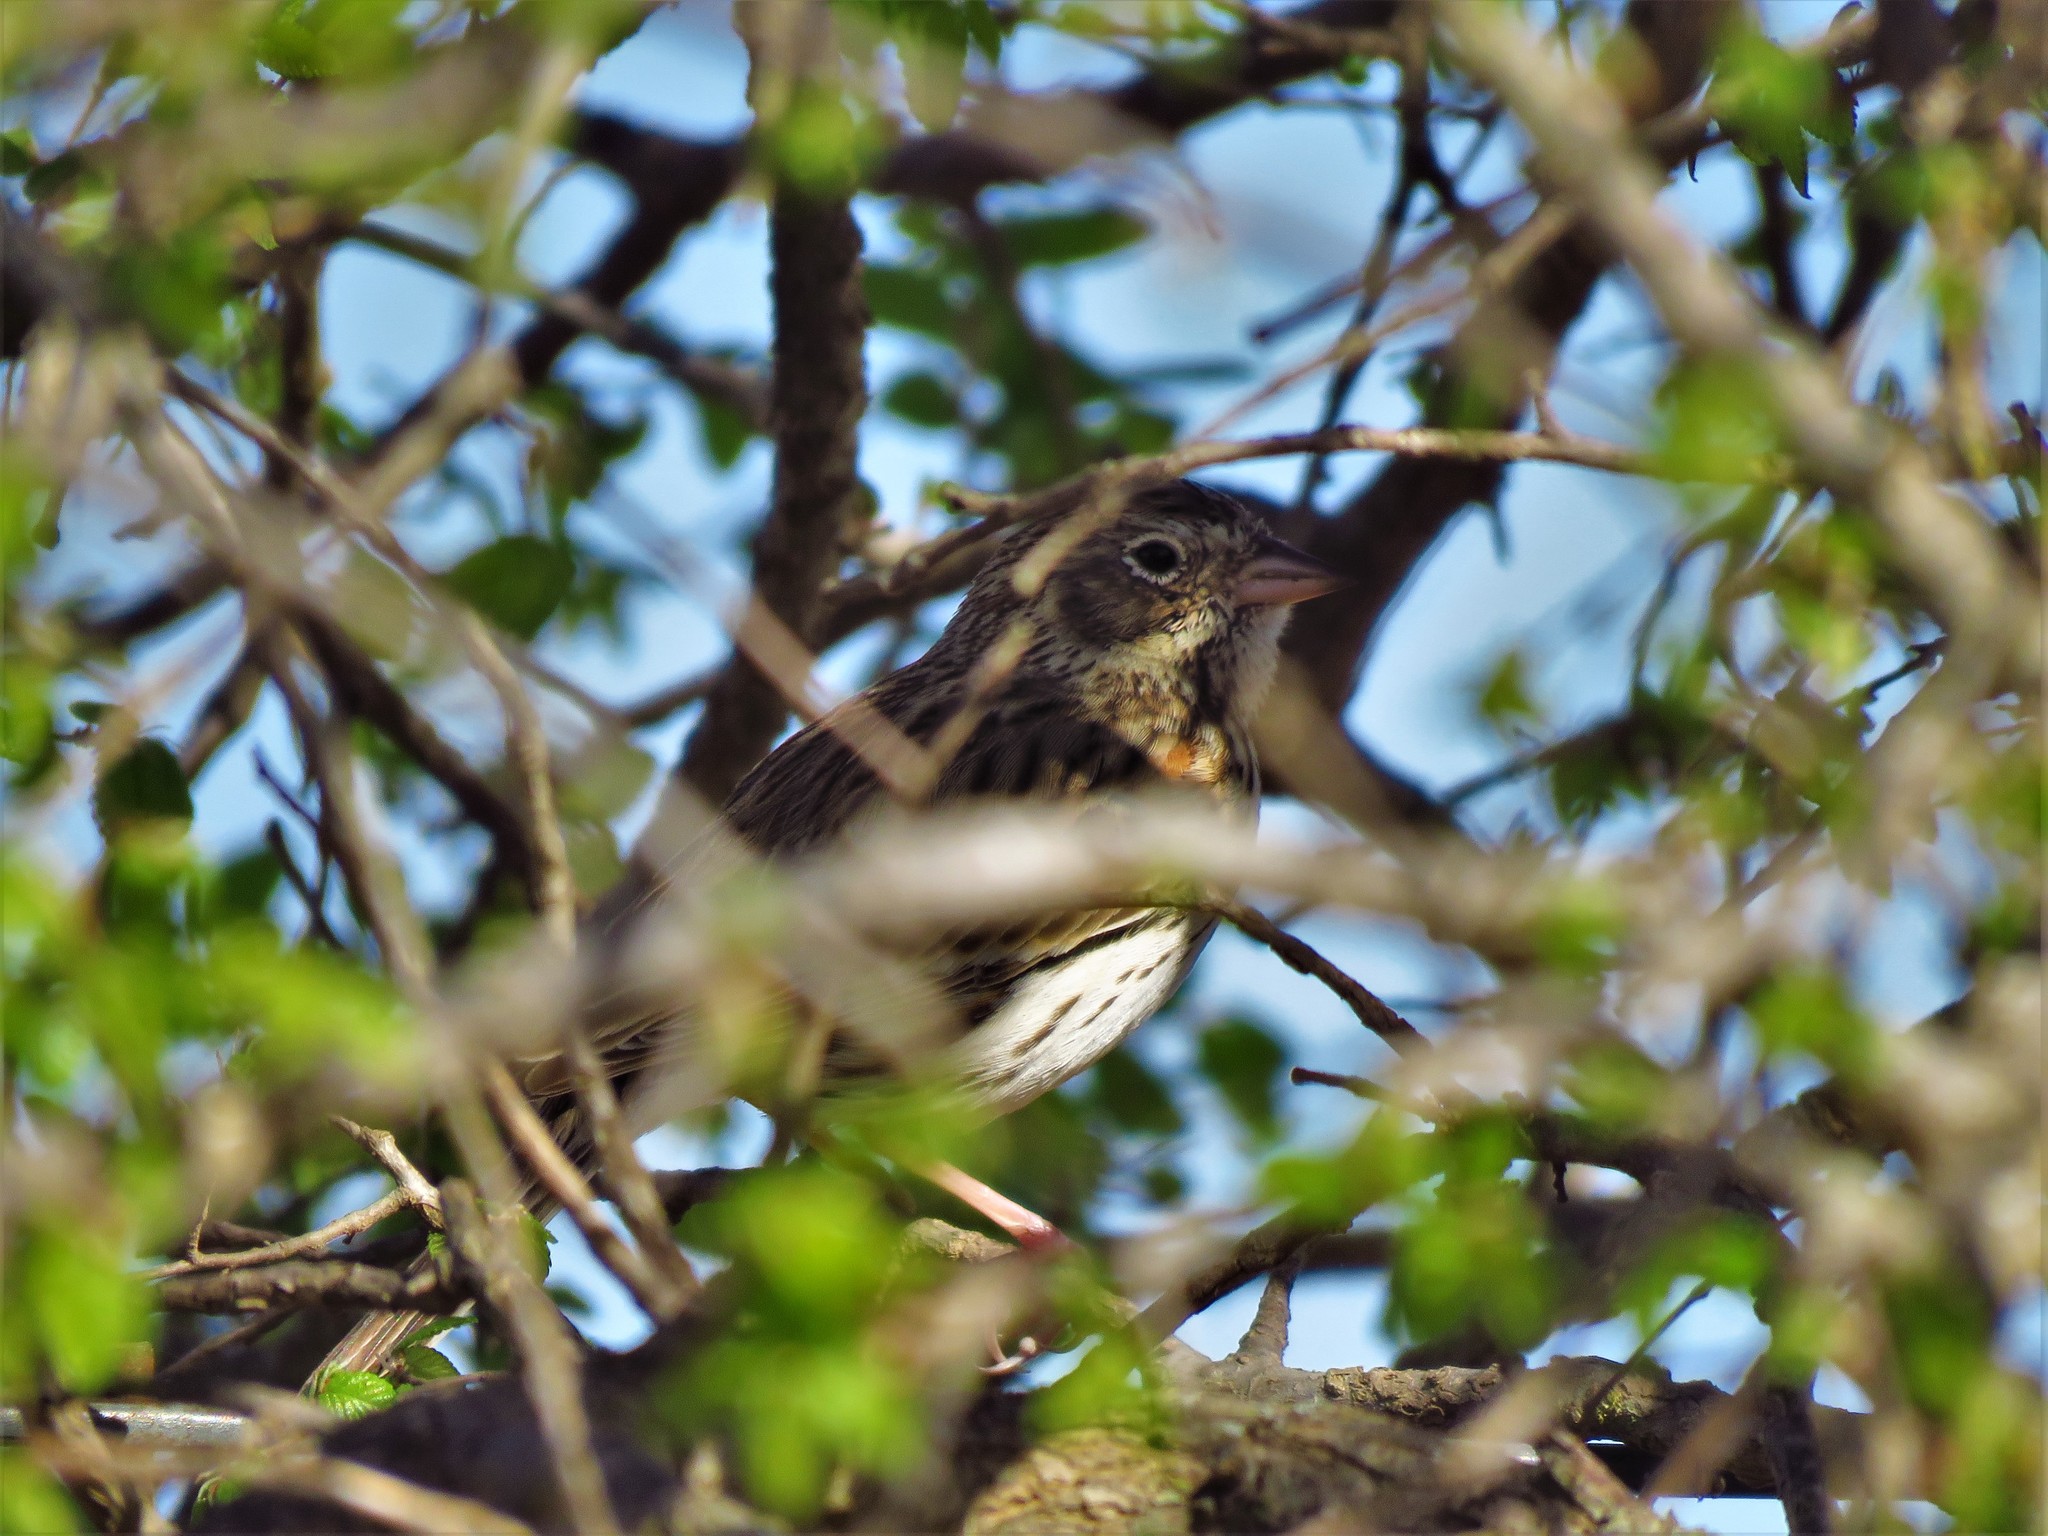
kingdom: Animalia
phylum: Chordata
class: Aves
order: Passeriformes
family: Passerellidae
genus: Pooecetes
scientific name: Pooecetes gramineus
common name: Vesper sparrow
